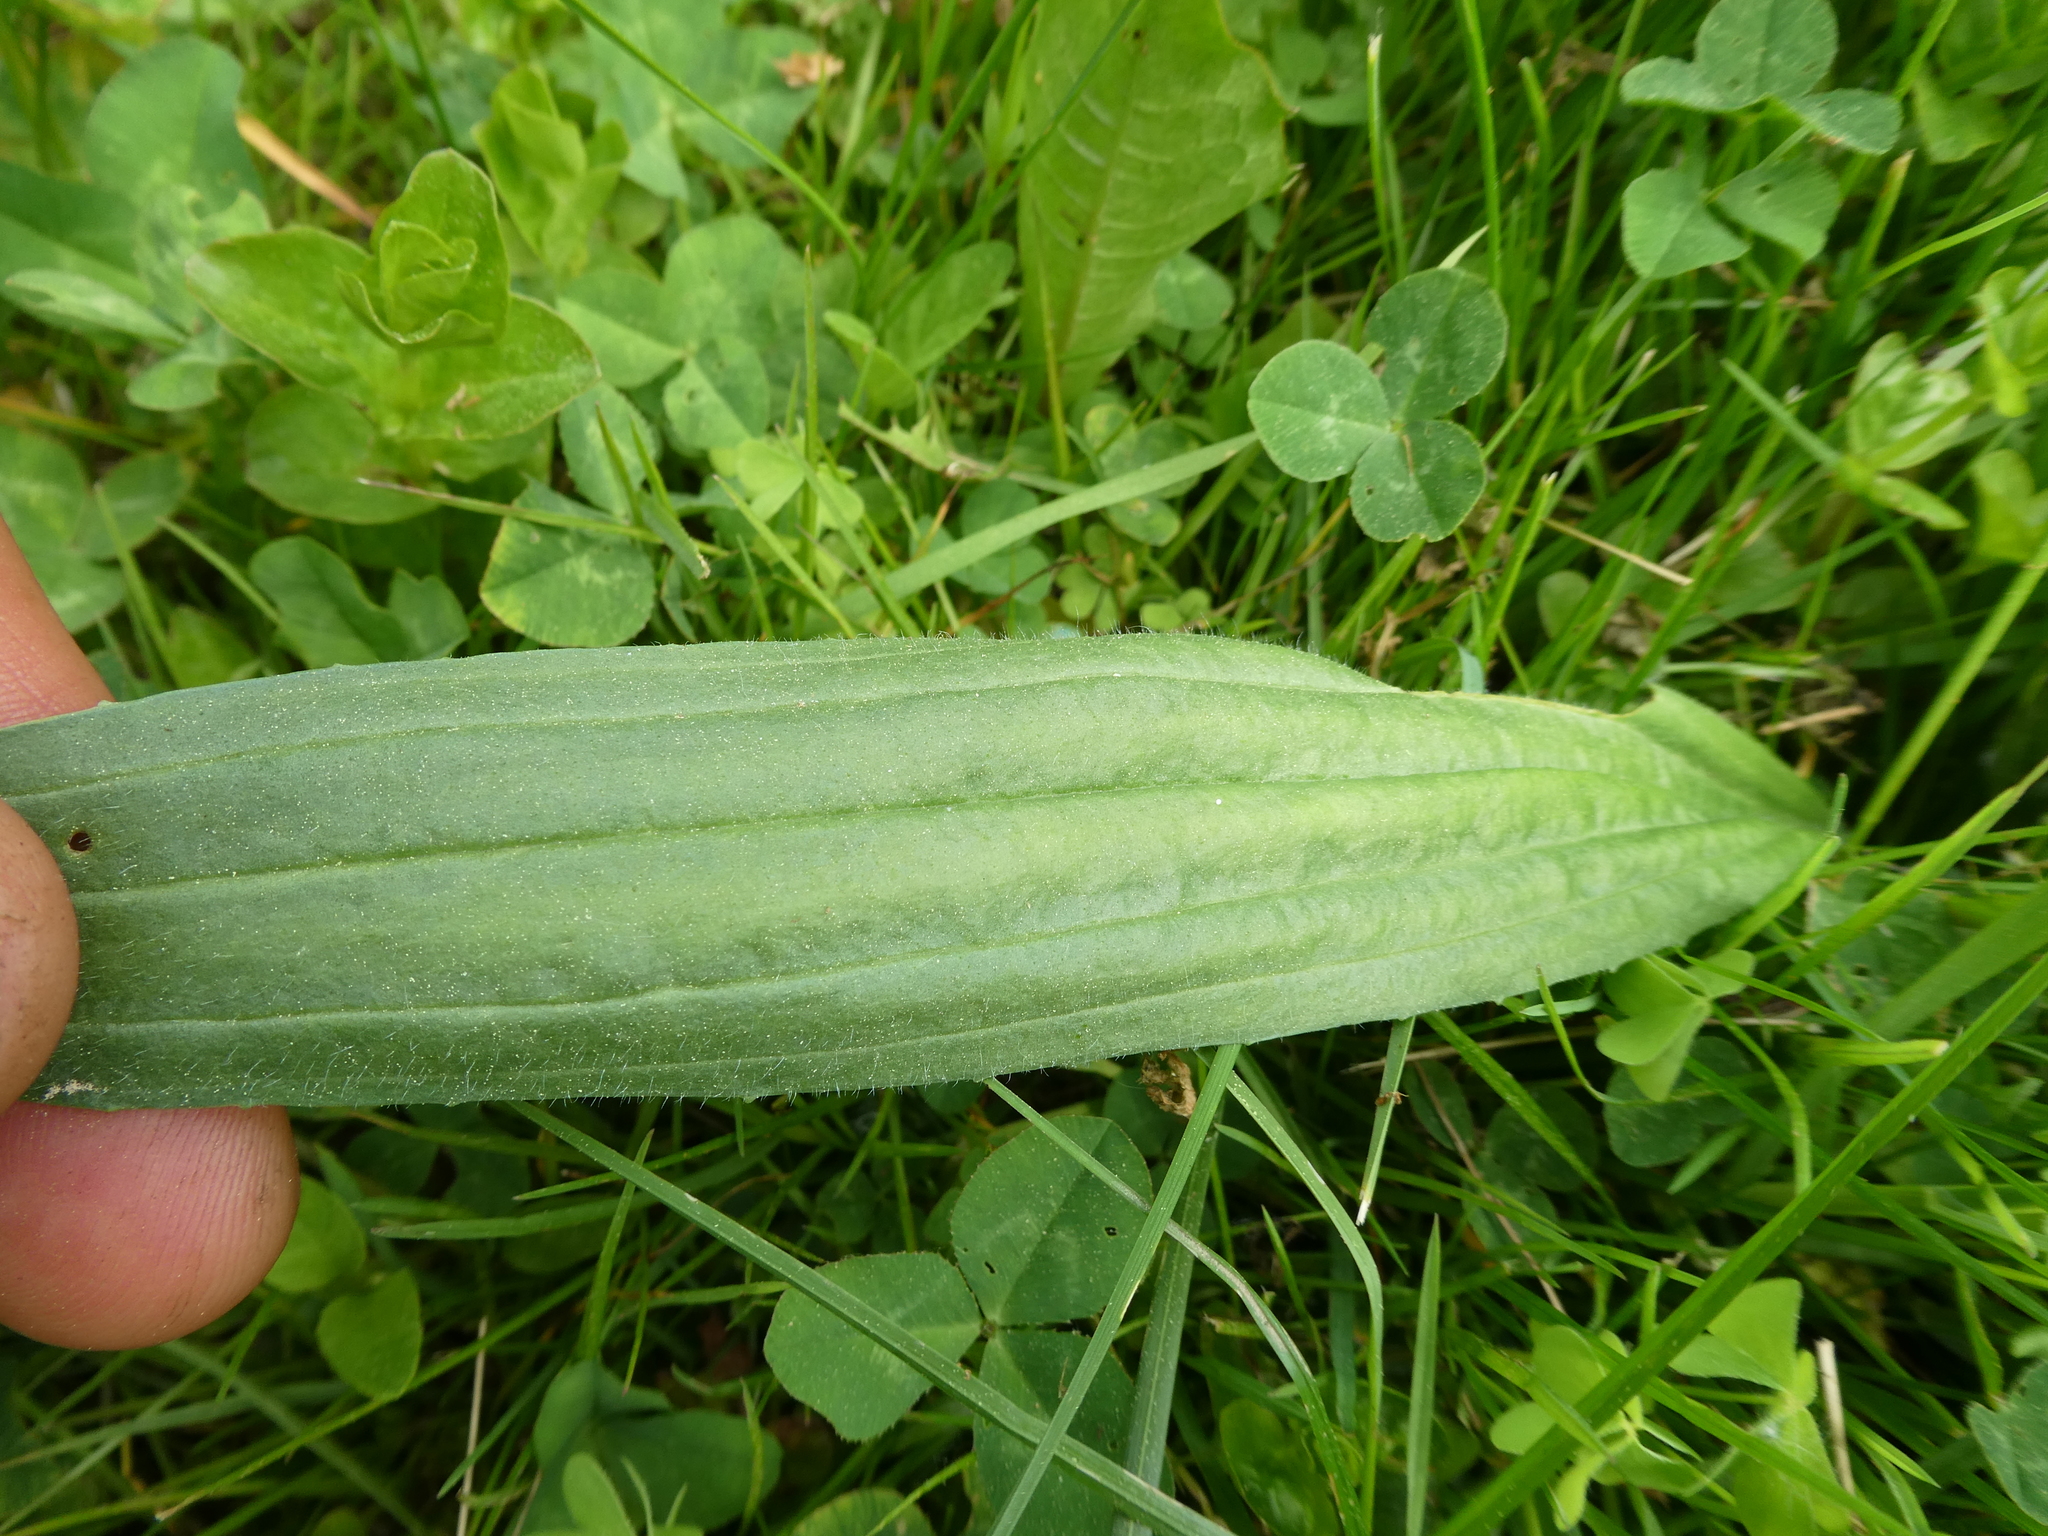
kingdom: Plantae
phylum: Tracheophyta
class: Magnoliopsida
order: Lamiales
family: Plantaginaceae
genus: Plantago
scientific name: Plantago lanceolata
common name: Ribwort plantain
